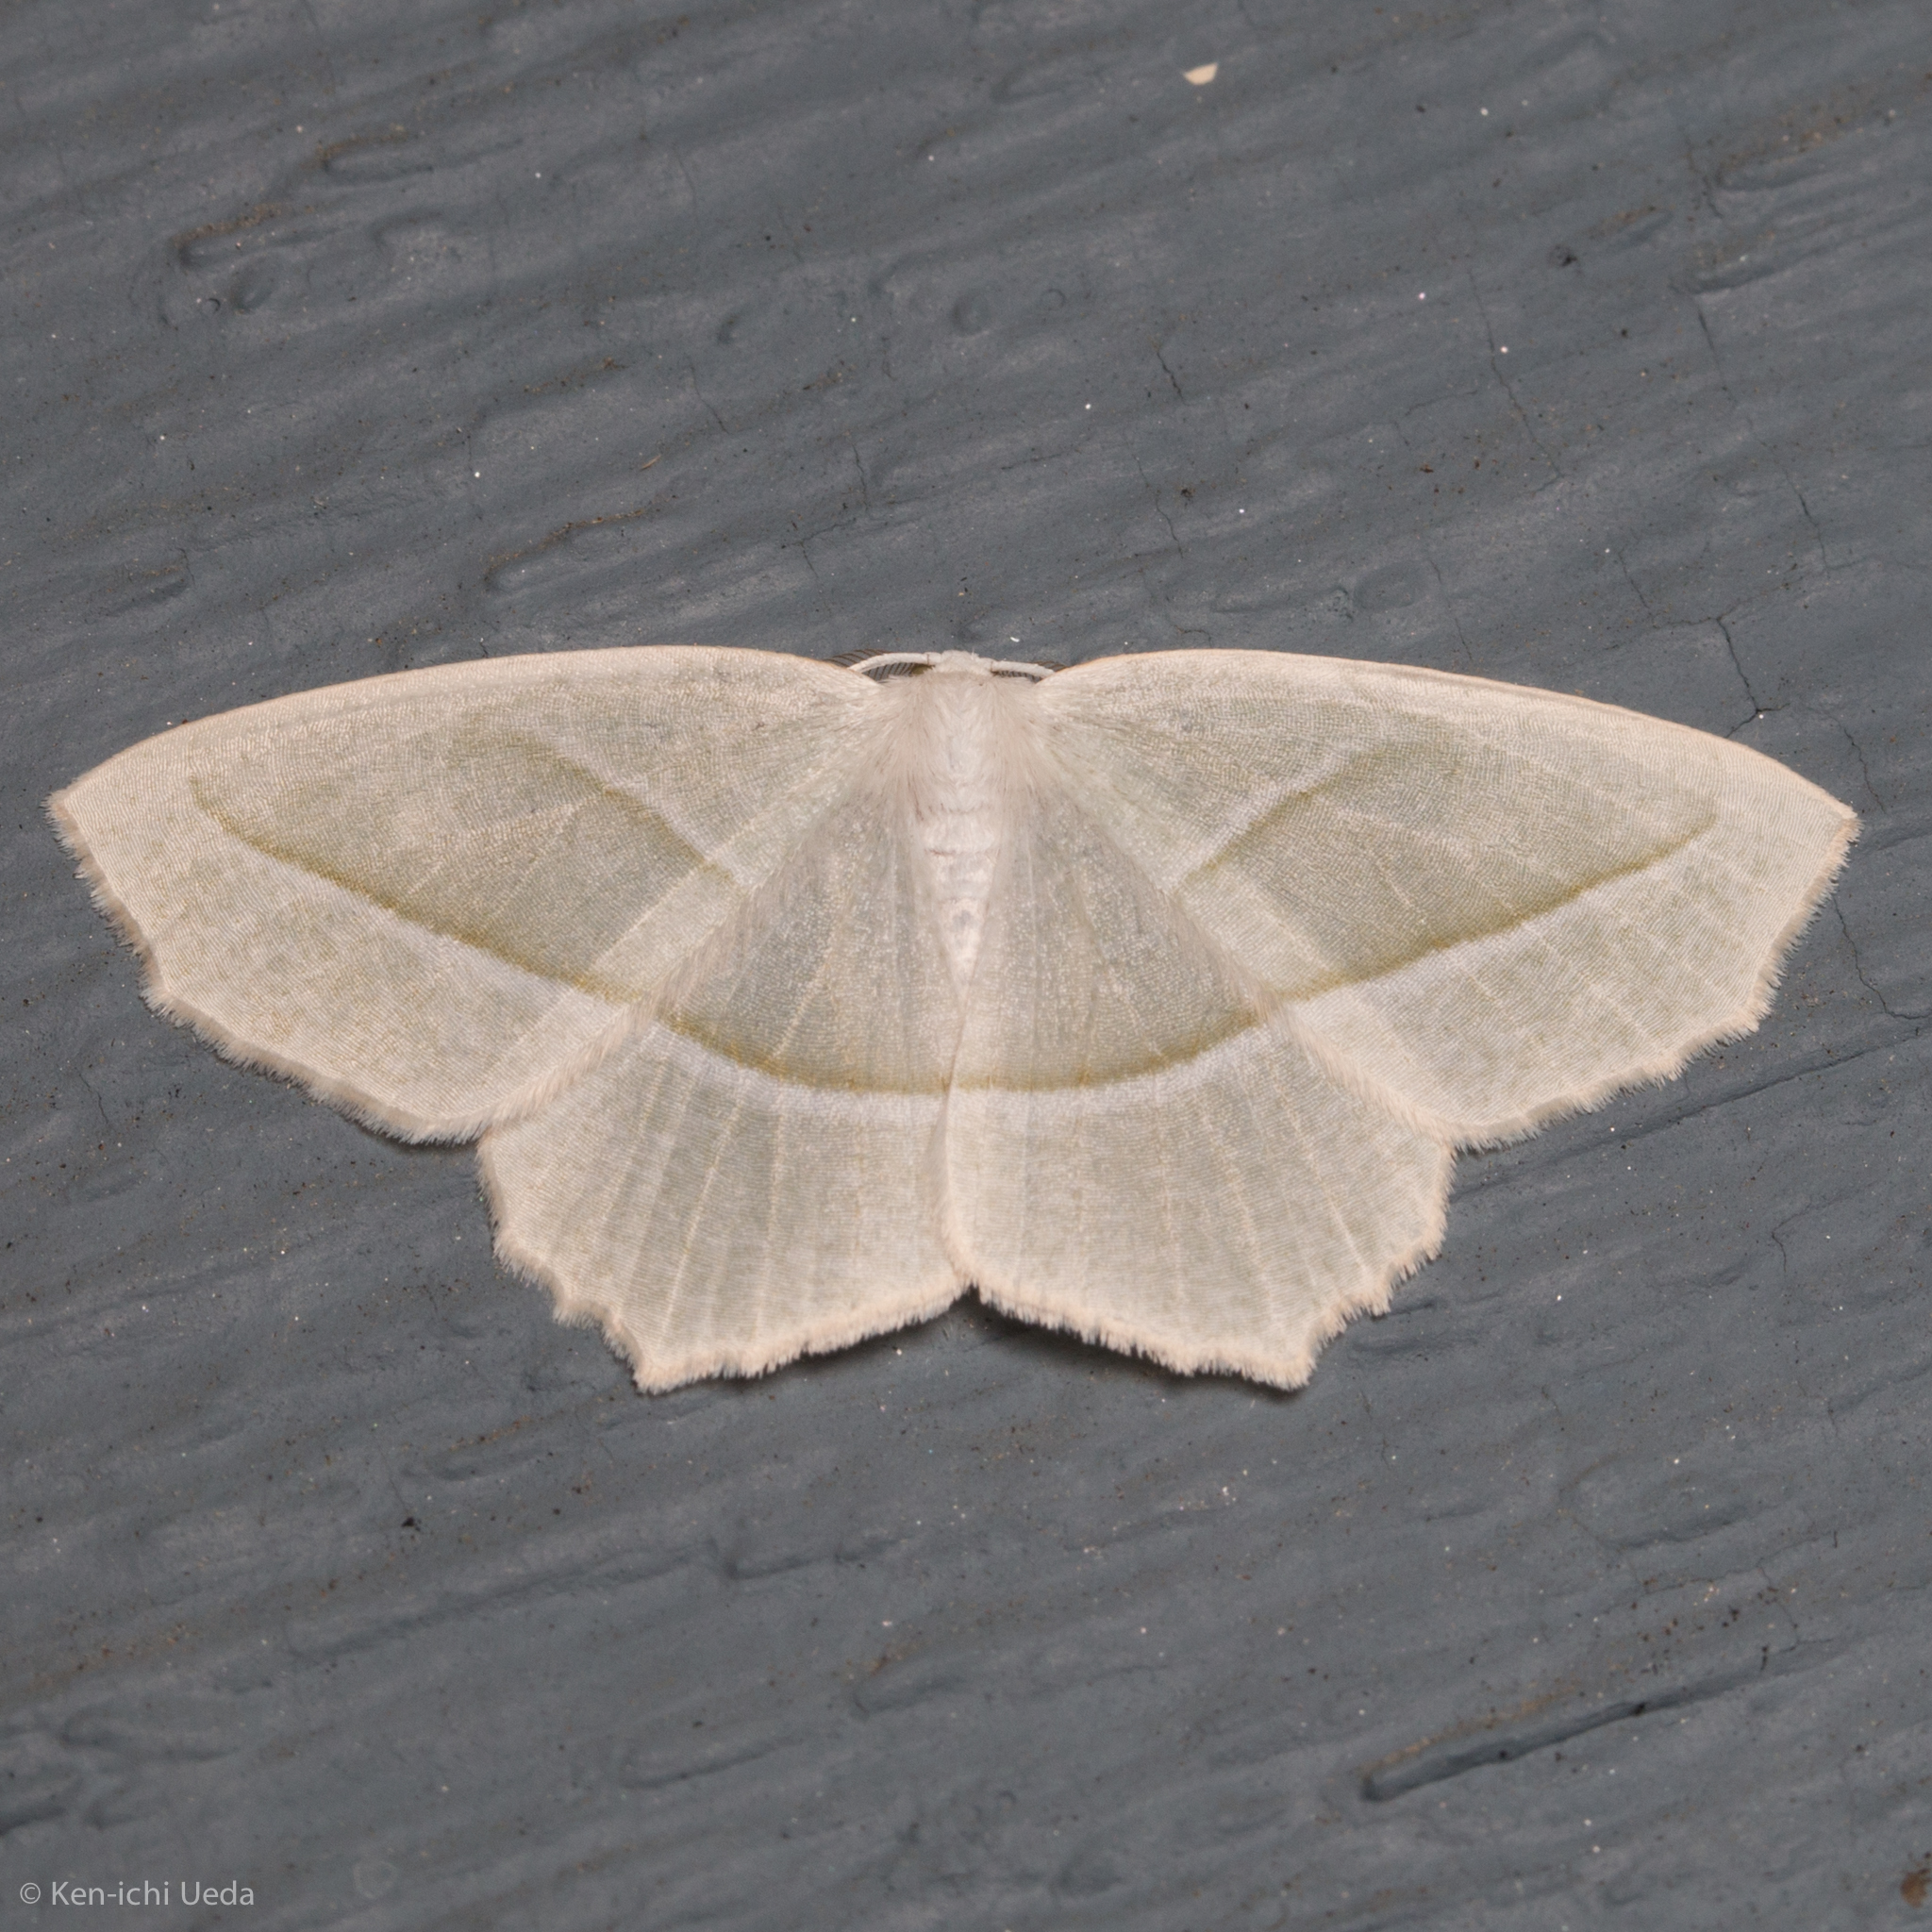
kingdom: Animalia
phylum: Arthropoda
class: Insecta
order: Lepidoptera
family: Geometridae
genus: Campaea
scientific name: Campaea perlata
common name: Fringed looper
